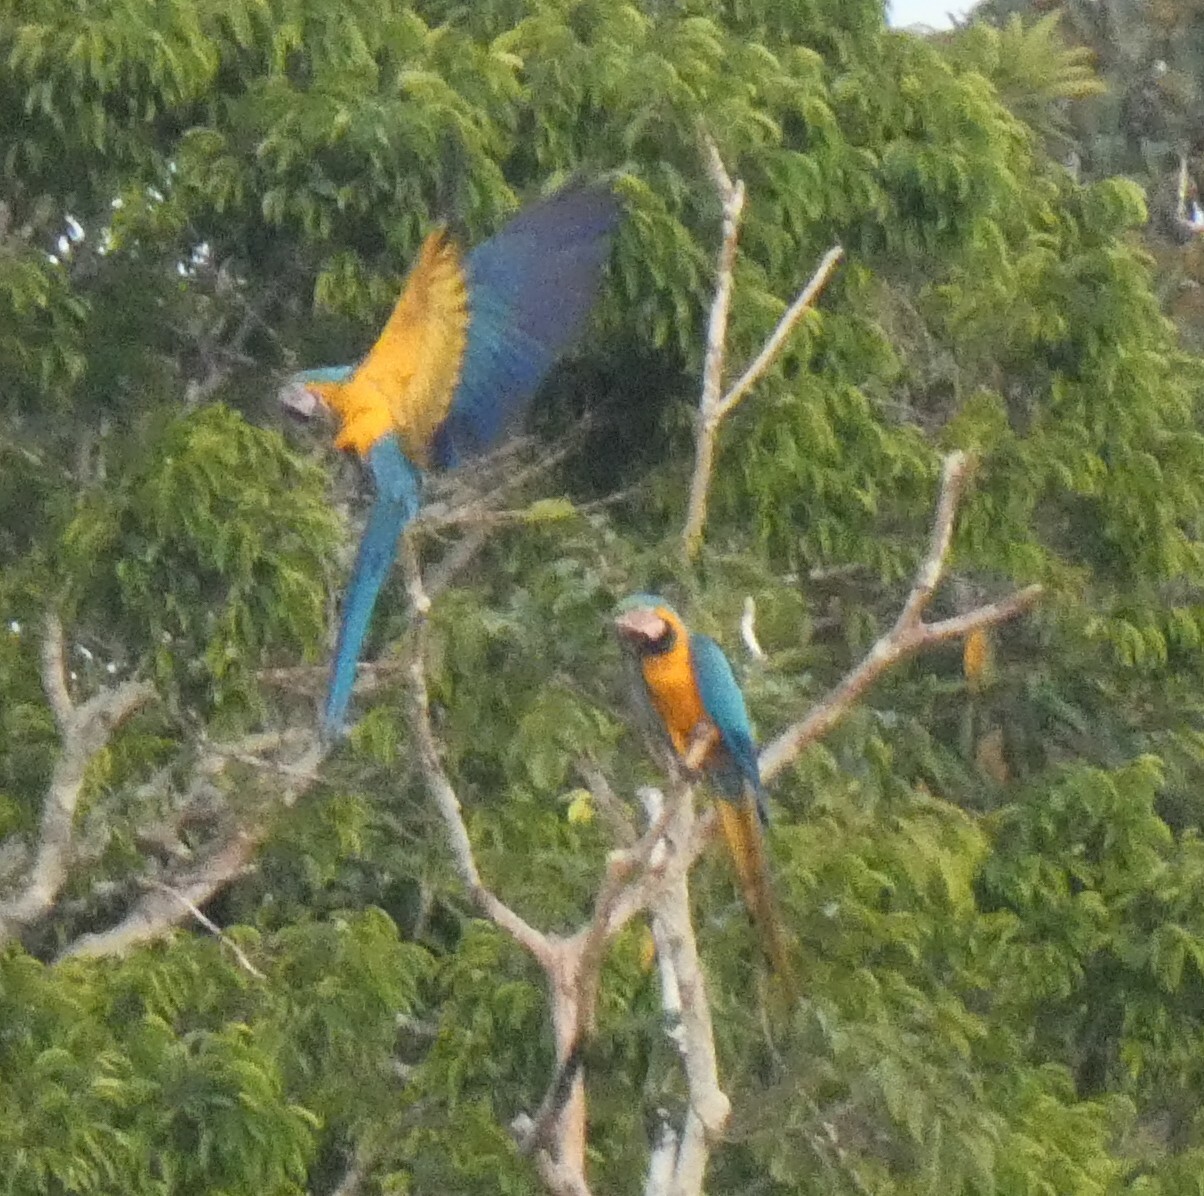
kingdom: Animalia
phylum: Chordata
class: Aves
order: Psittaciformes
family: Psittacidae
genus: Ara
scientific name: Ara ararauna
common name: Blue-and-yellow macaw
